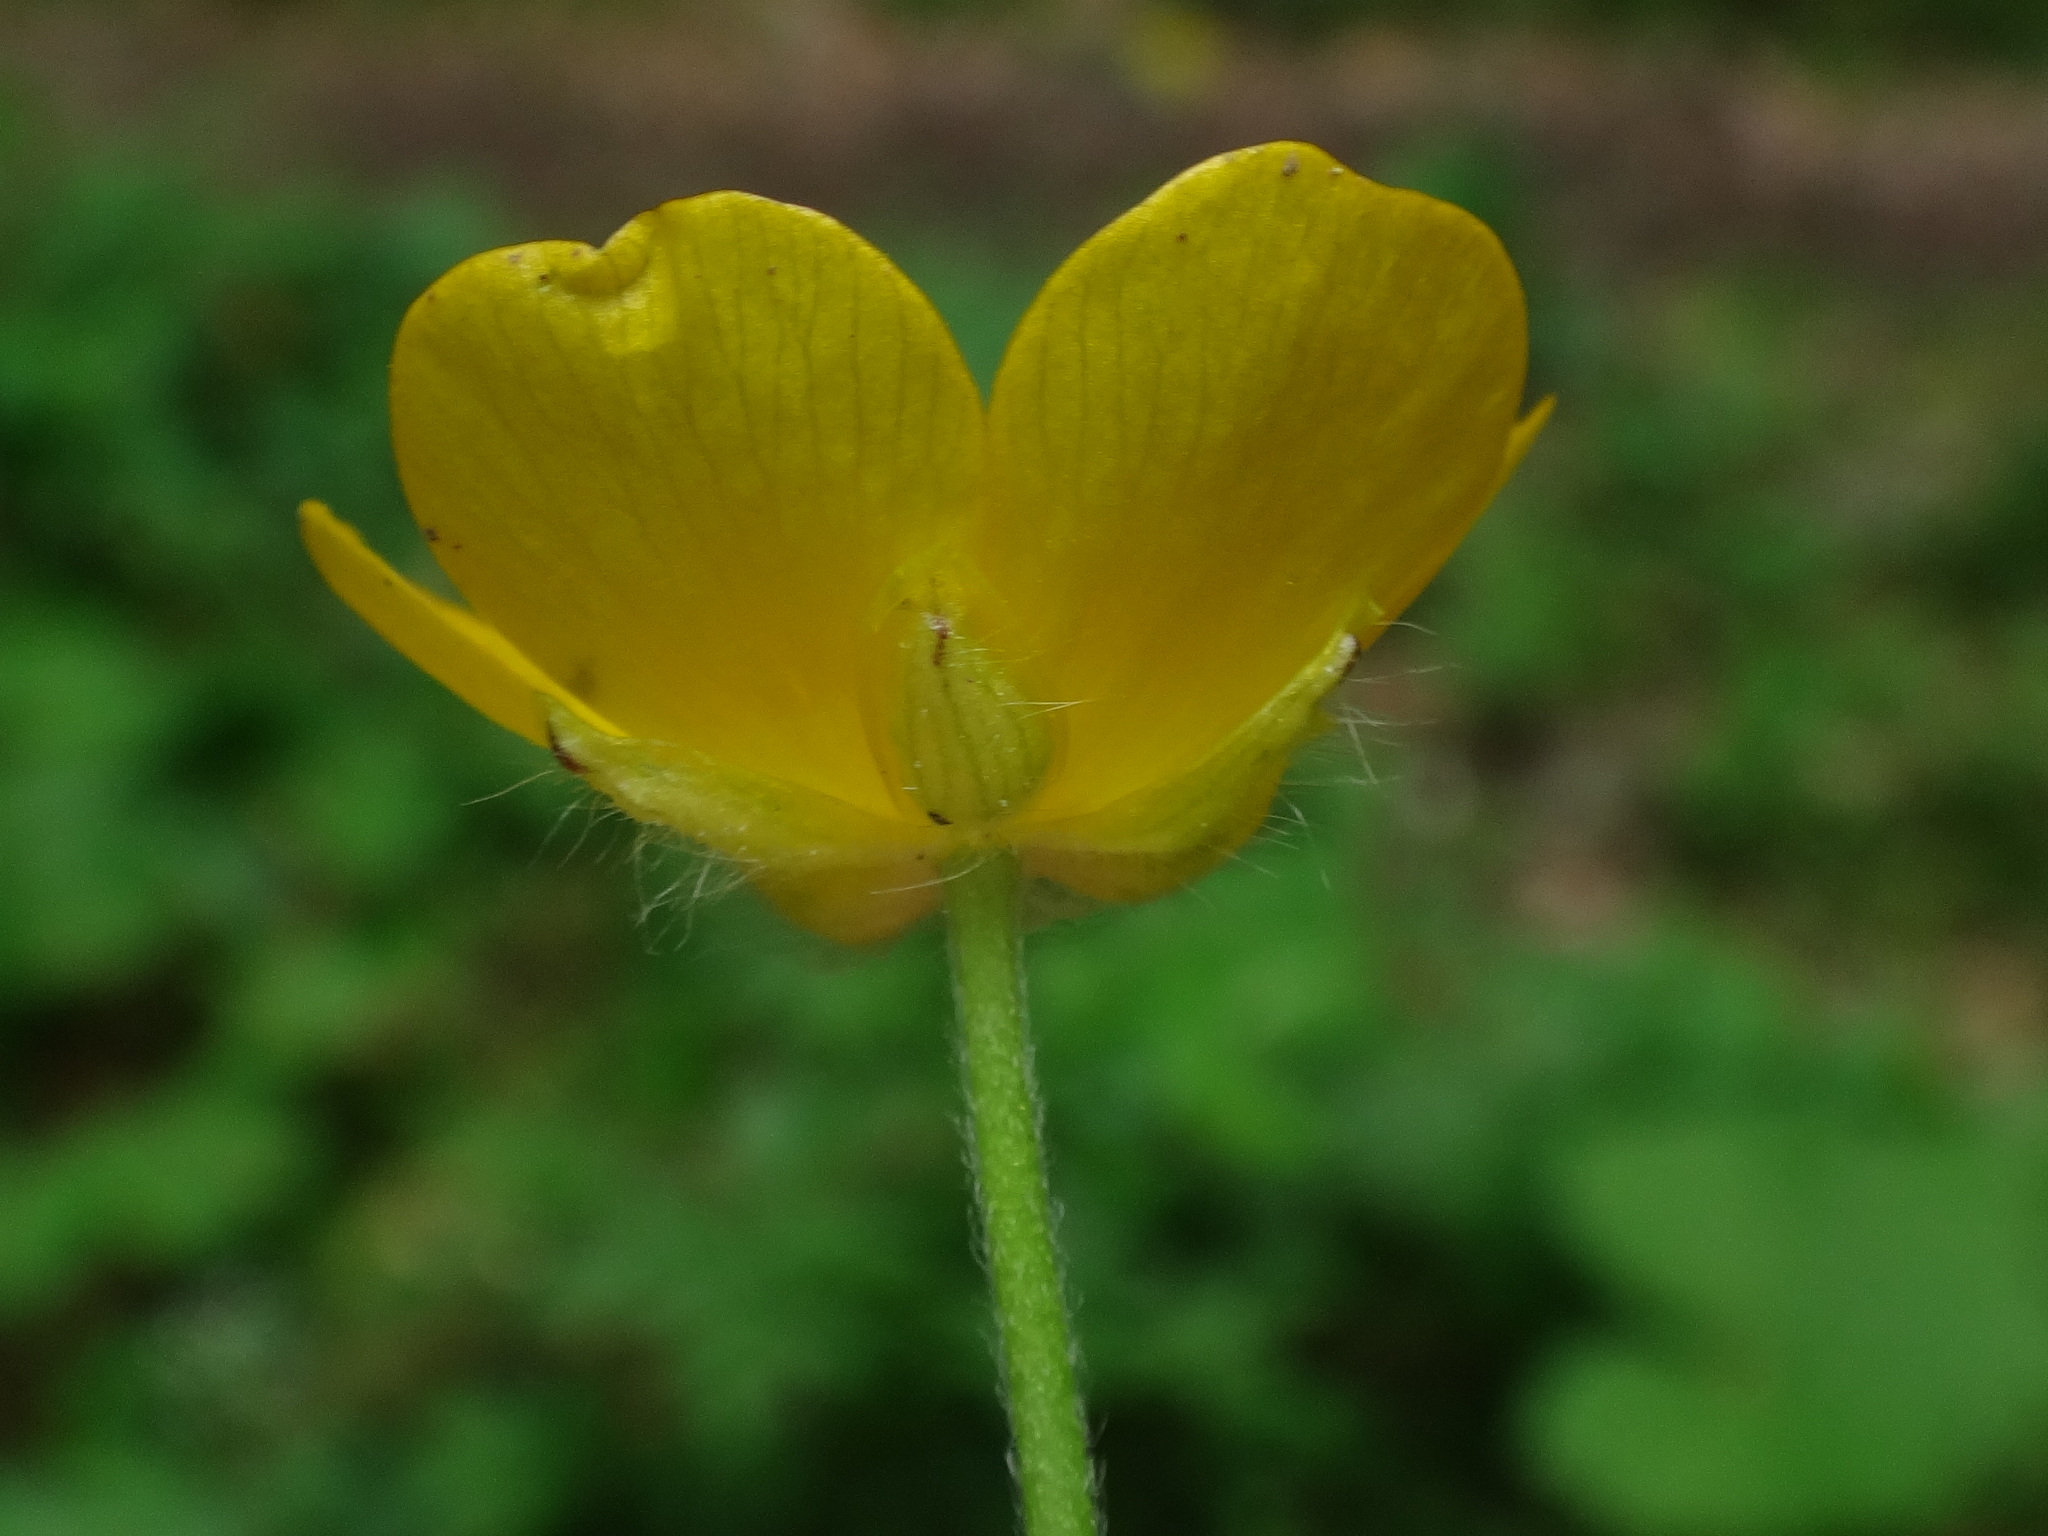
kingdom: Plantae
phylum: Tracheophyta
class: Magnoliopsida
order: Ranunculales
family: Ranunculaceae
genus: Ranunculus
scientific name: Ranunculus lanuginosus
